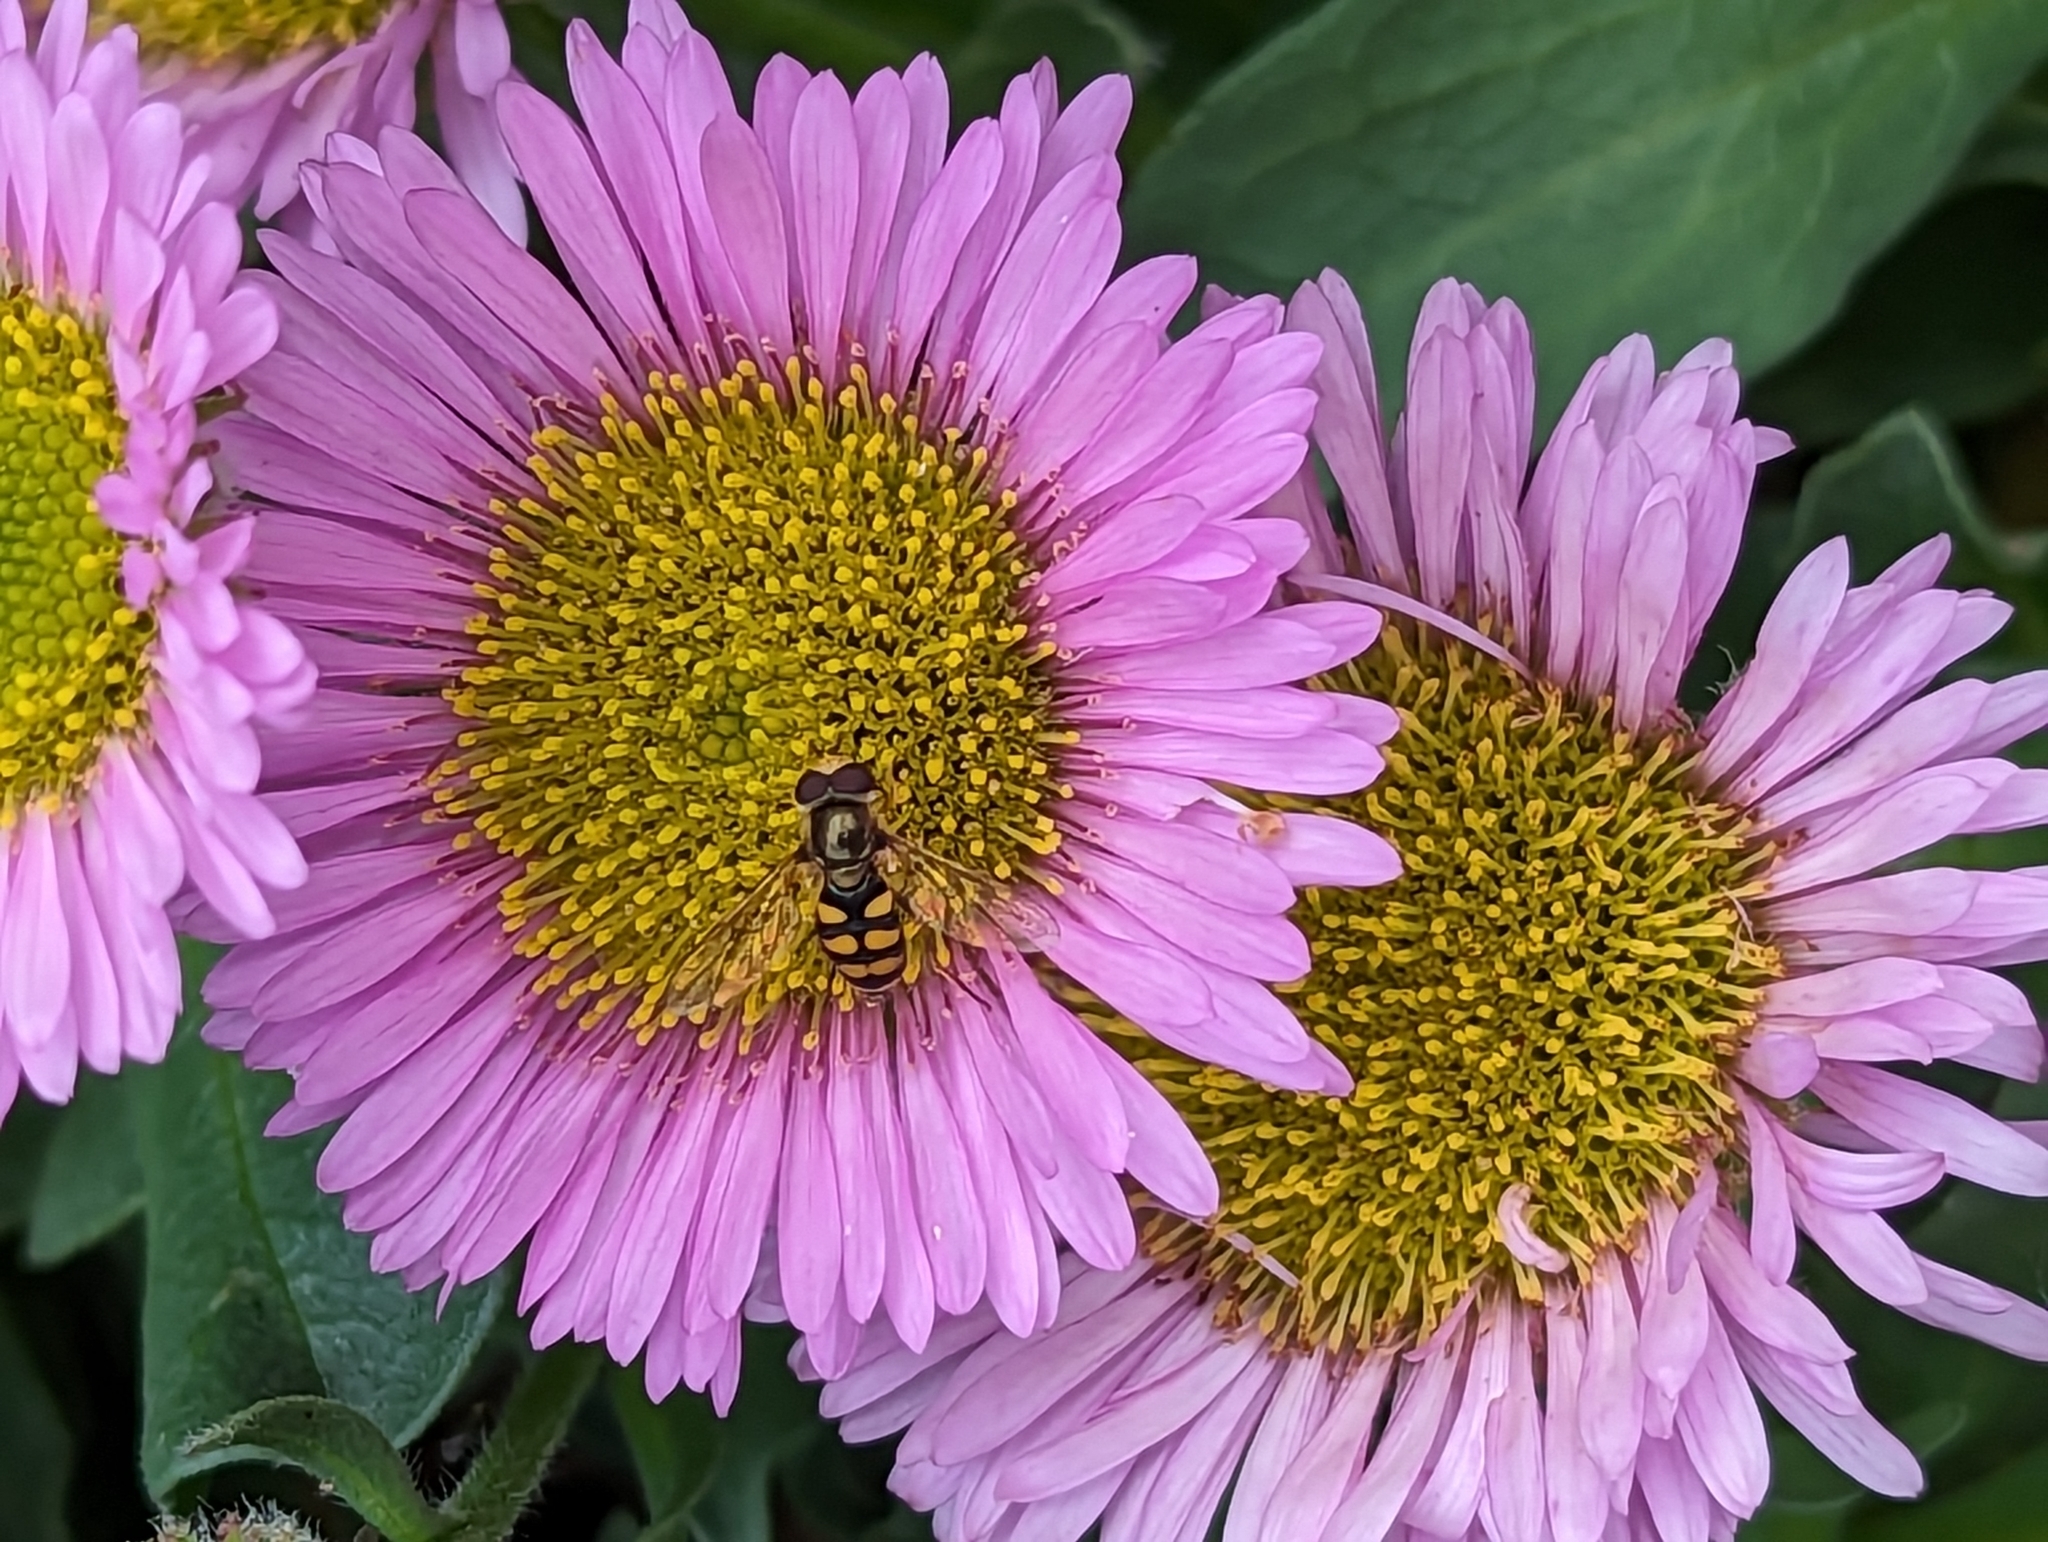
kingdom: Animalia
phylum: Arthropoda
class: Insecta
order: Diptera
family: Syrphidae
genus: Eupeodes
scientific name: Eupeodes
